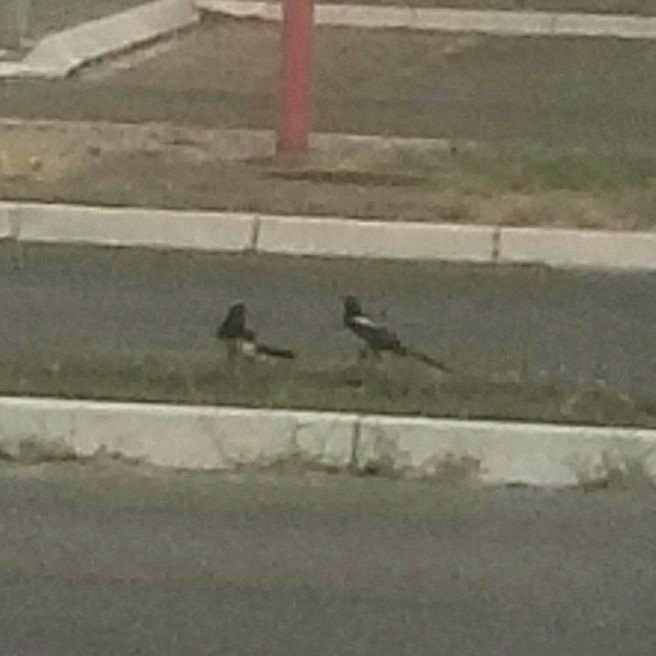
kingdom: Animalia
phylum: Chordata
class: Aves
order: Passeriformes
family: Corvidae
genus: Pica
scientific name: Pica pica
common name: Eurasian magpie
